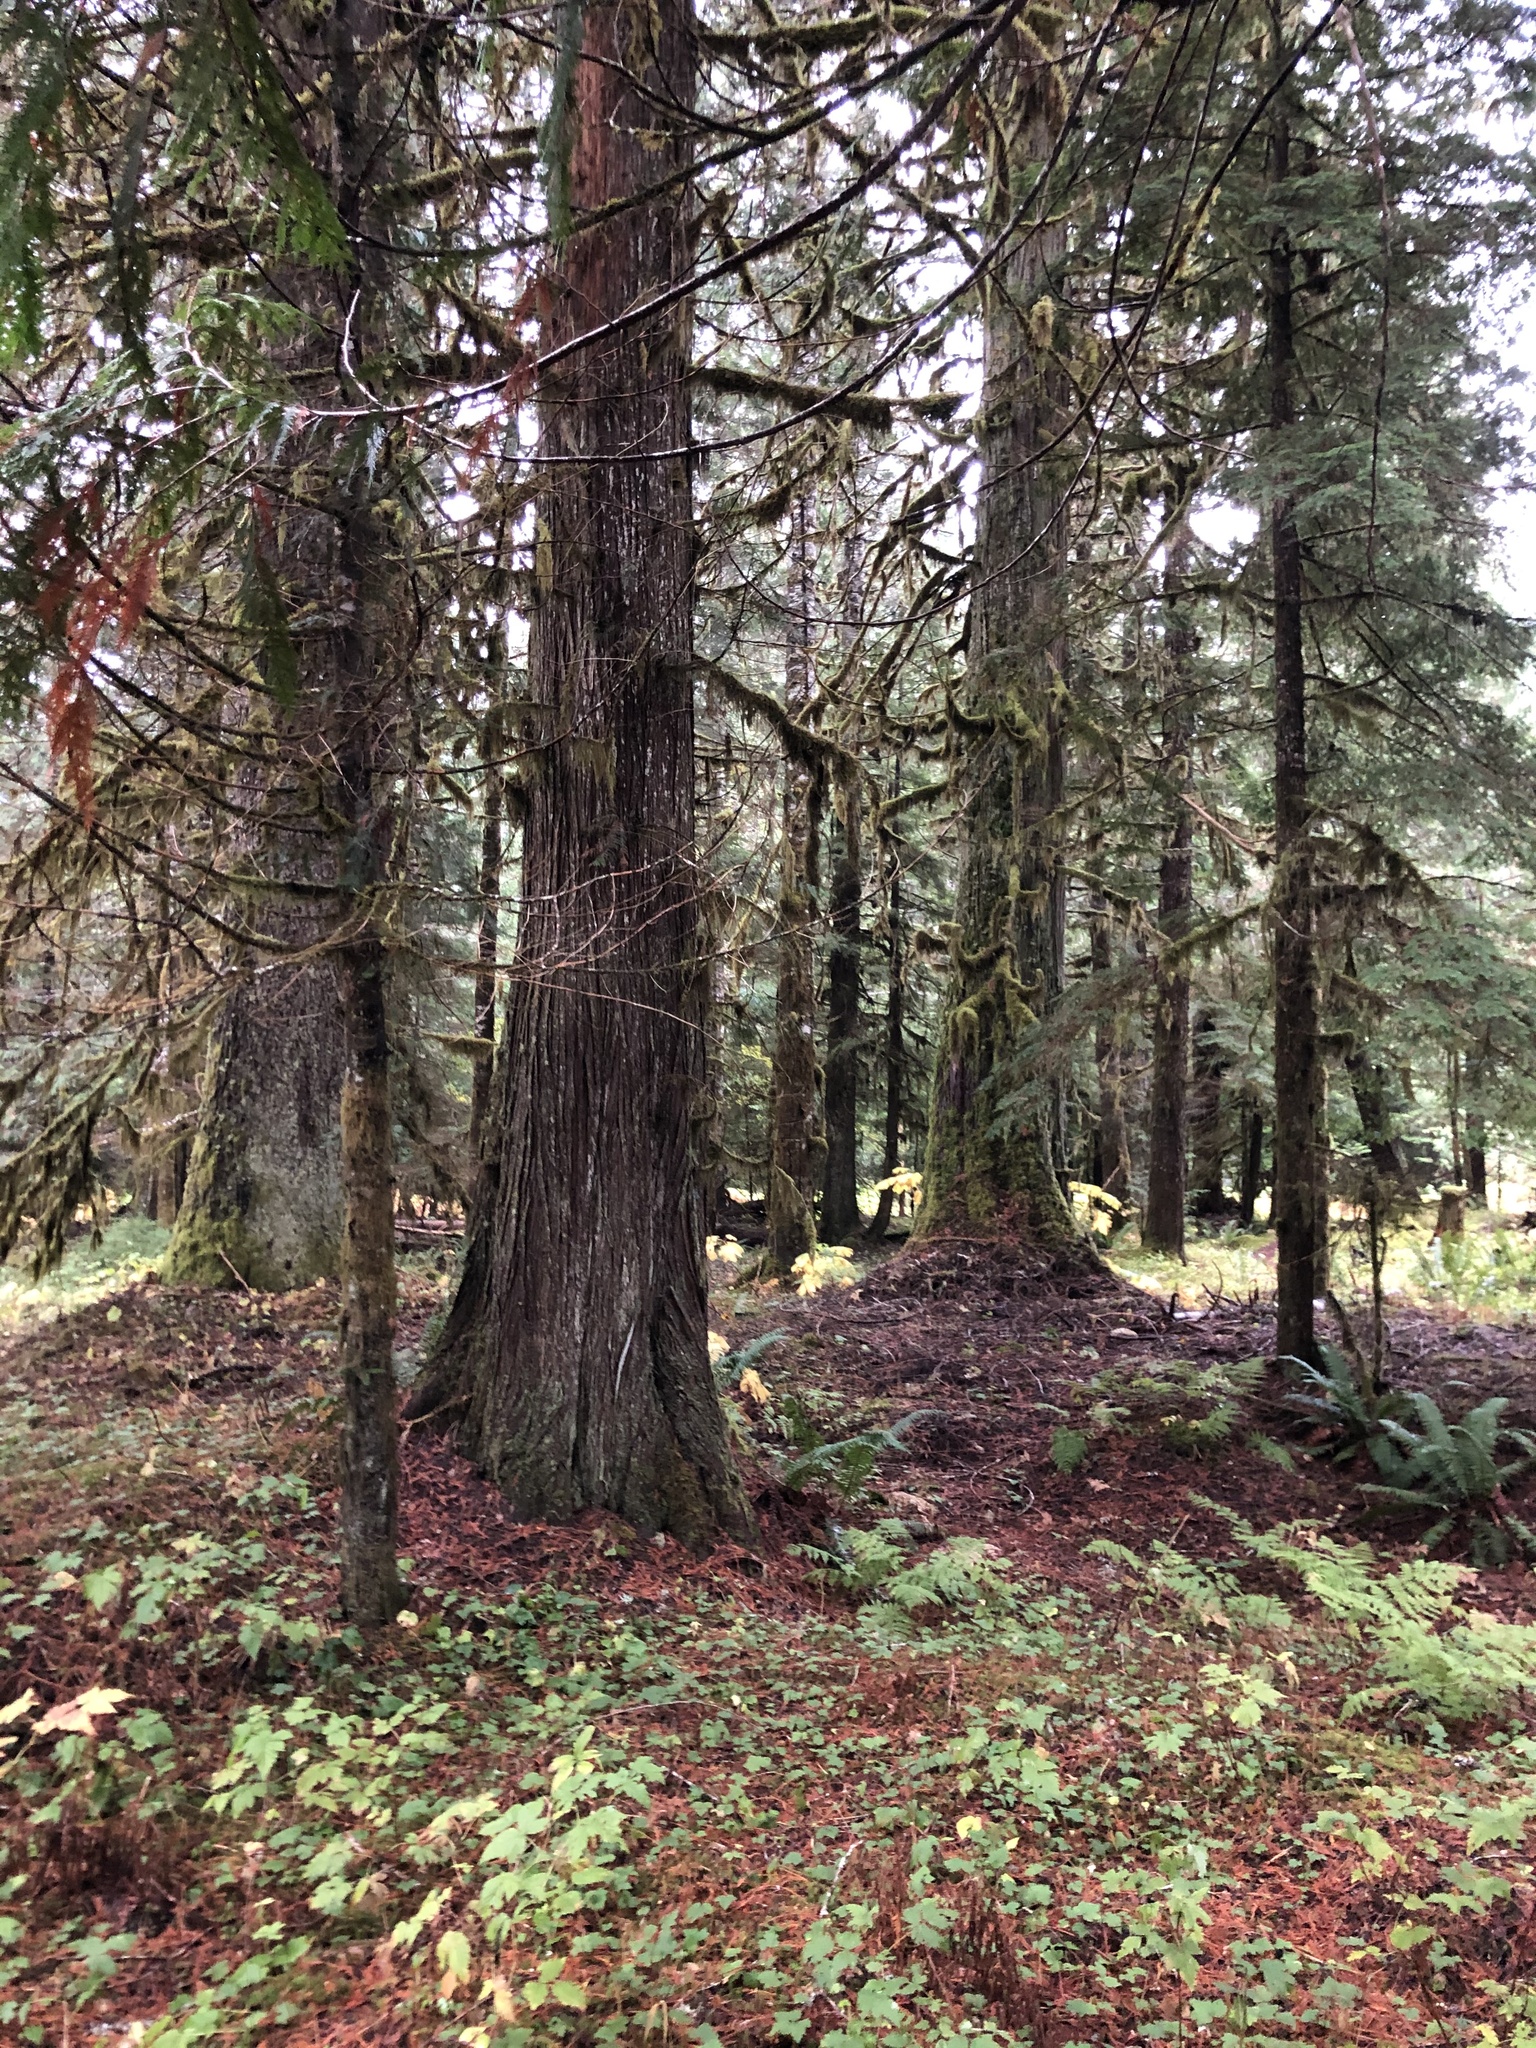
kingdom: Plantae
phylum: Tracheophyta
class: Pinopsida
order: Pinales
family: Cupressaceae
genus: Thuja
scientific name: Thuja plicata
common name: Western red-cedar
